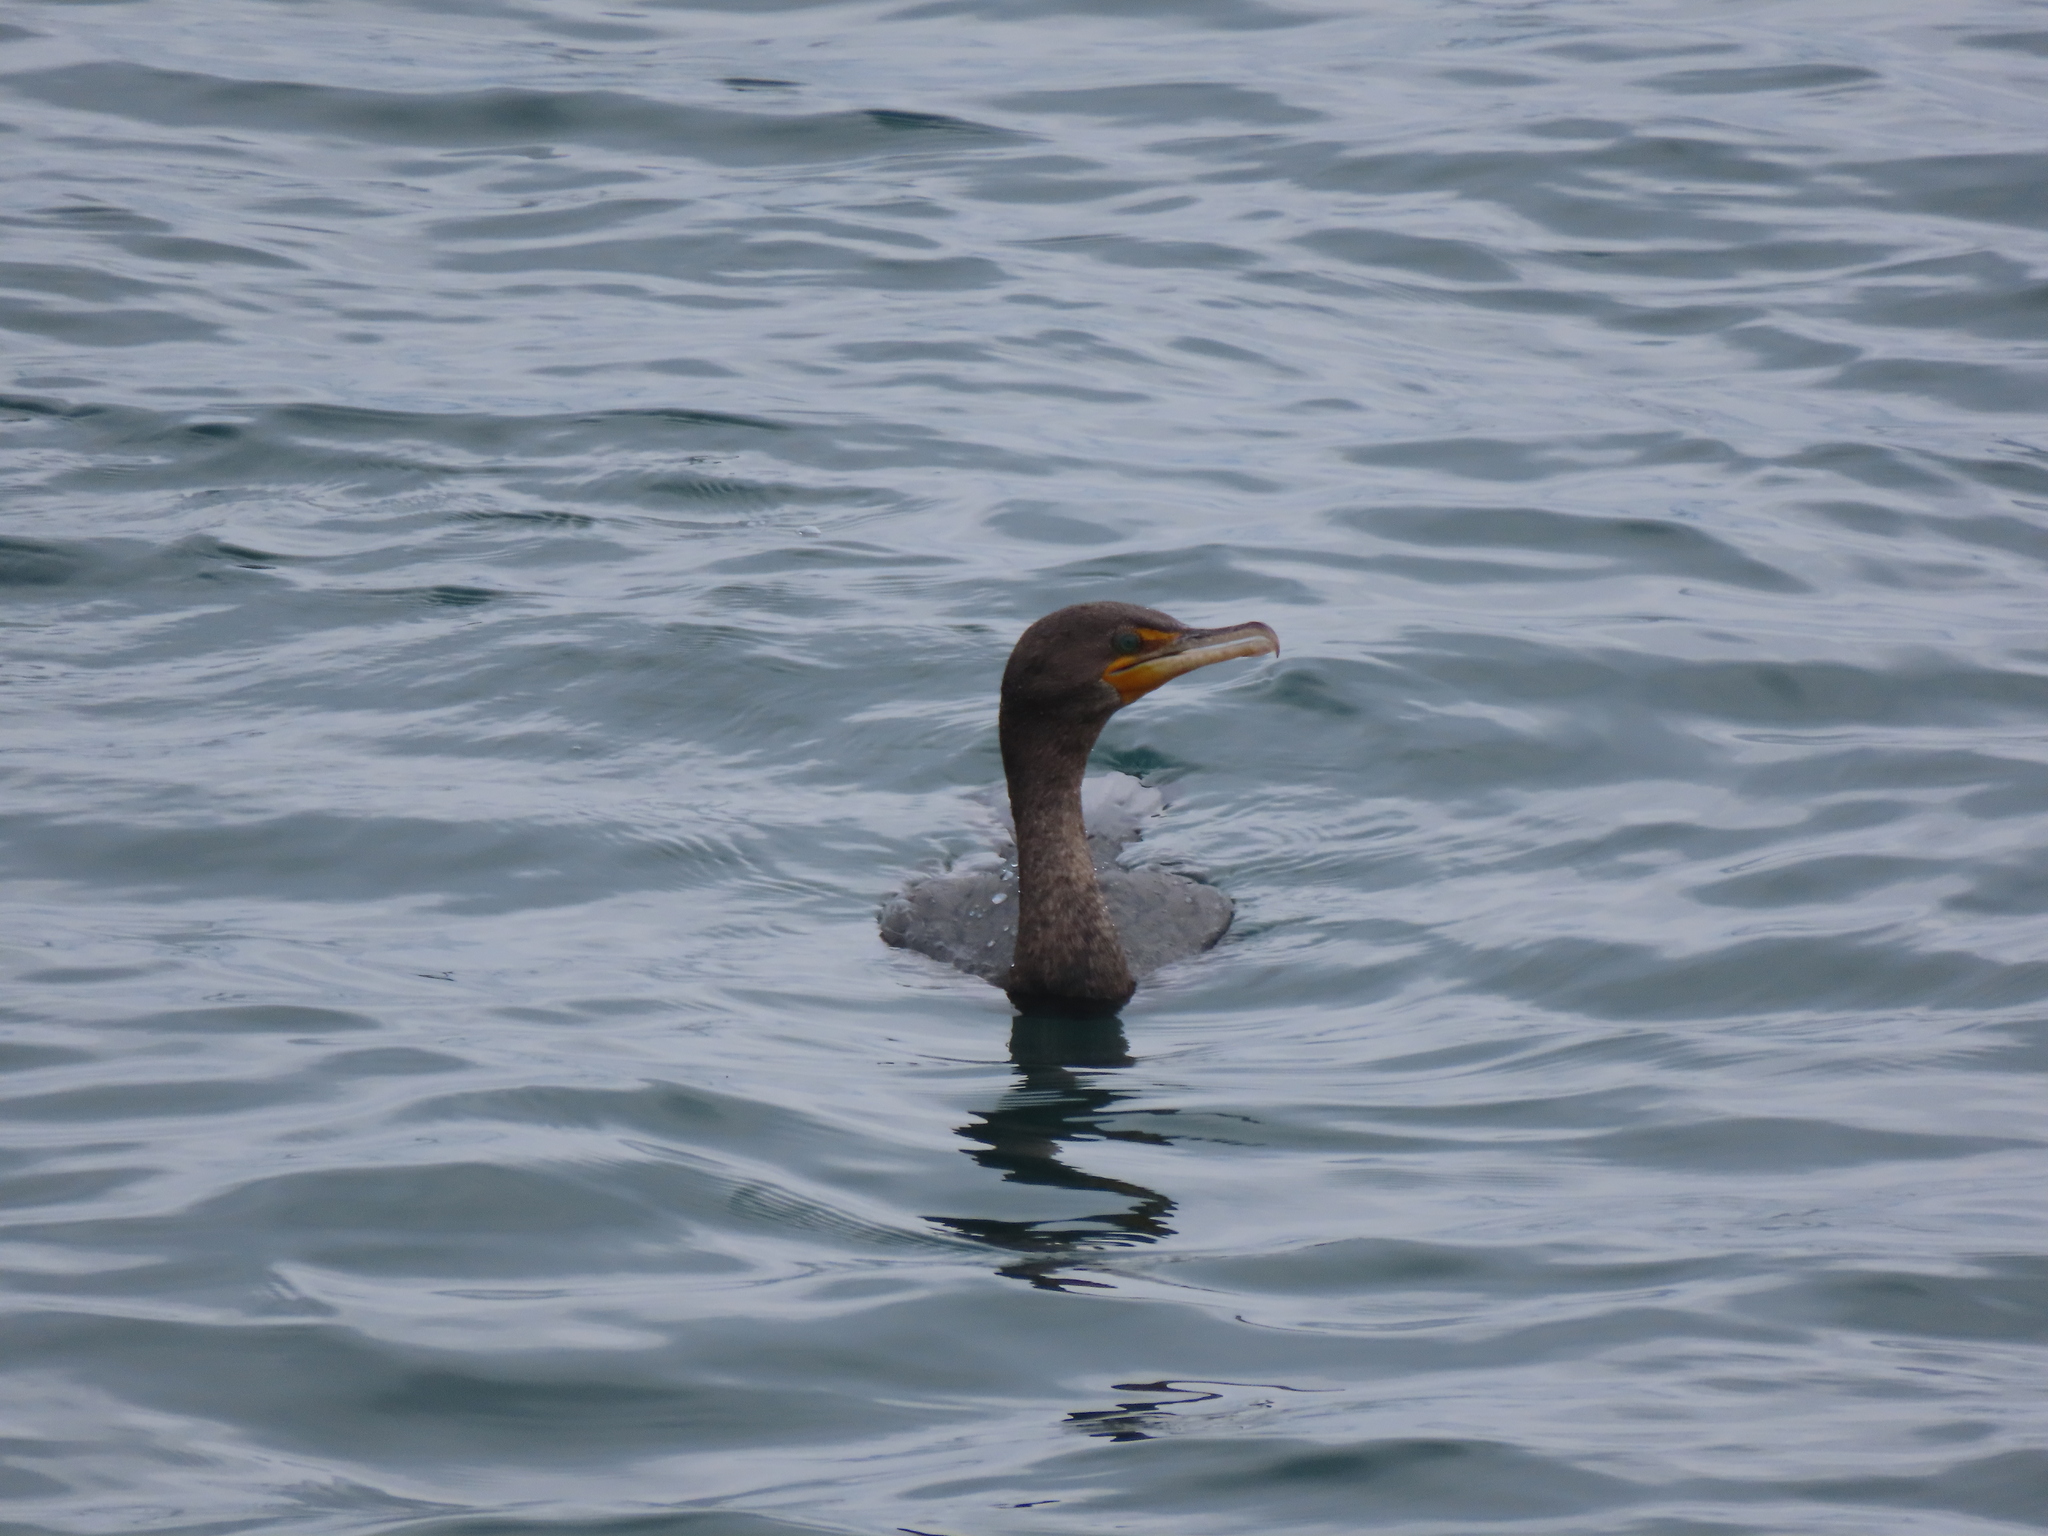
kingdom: Animalia
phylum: Chordata
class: Aves
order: Suliformes
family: Phalacrocoracidae
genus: Phalacrocorax
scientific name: Phalacrocorax auritus
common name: Double-crested cormorant
